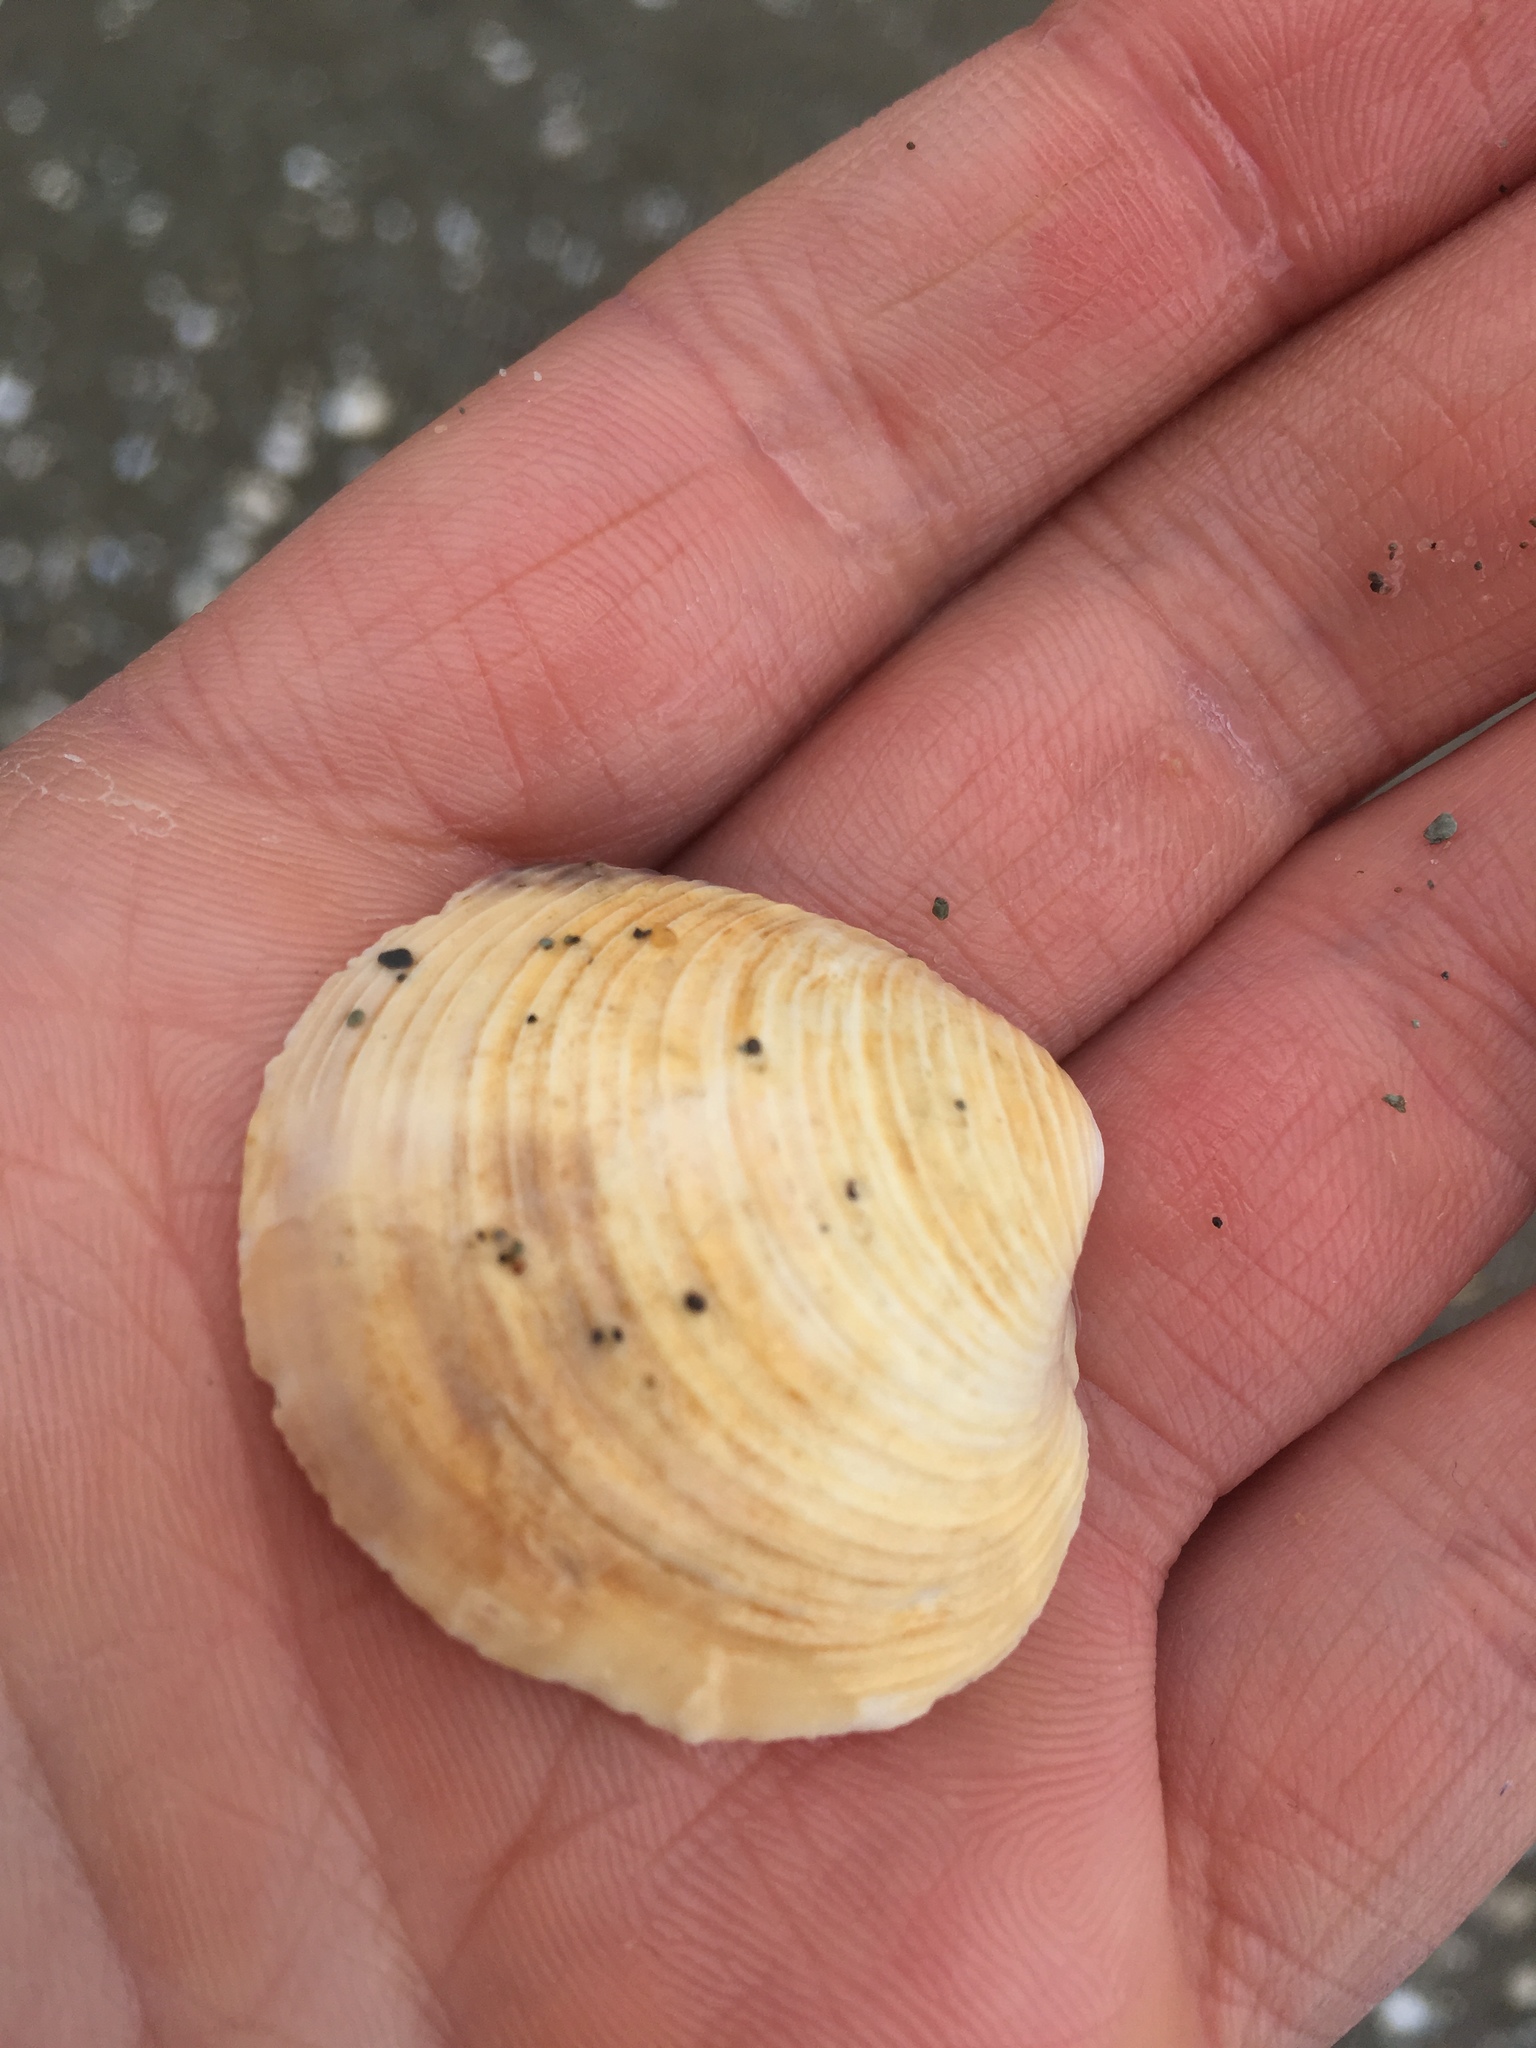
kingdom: Animalia
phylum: Mollusca
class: Bivalvia
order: Venerida
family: Veneridae
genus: Mercenaria
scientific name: Mercenaria mercenaria
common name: American hard-shelled clam
